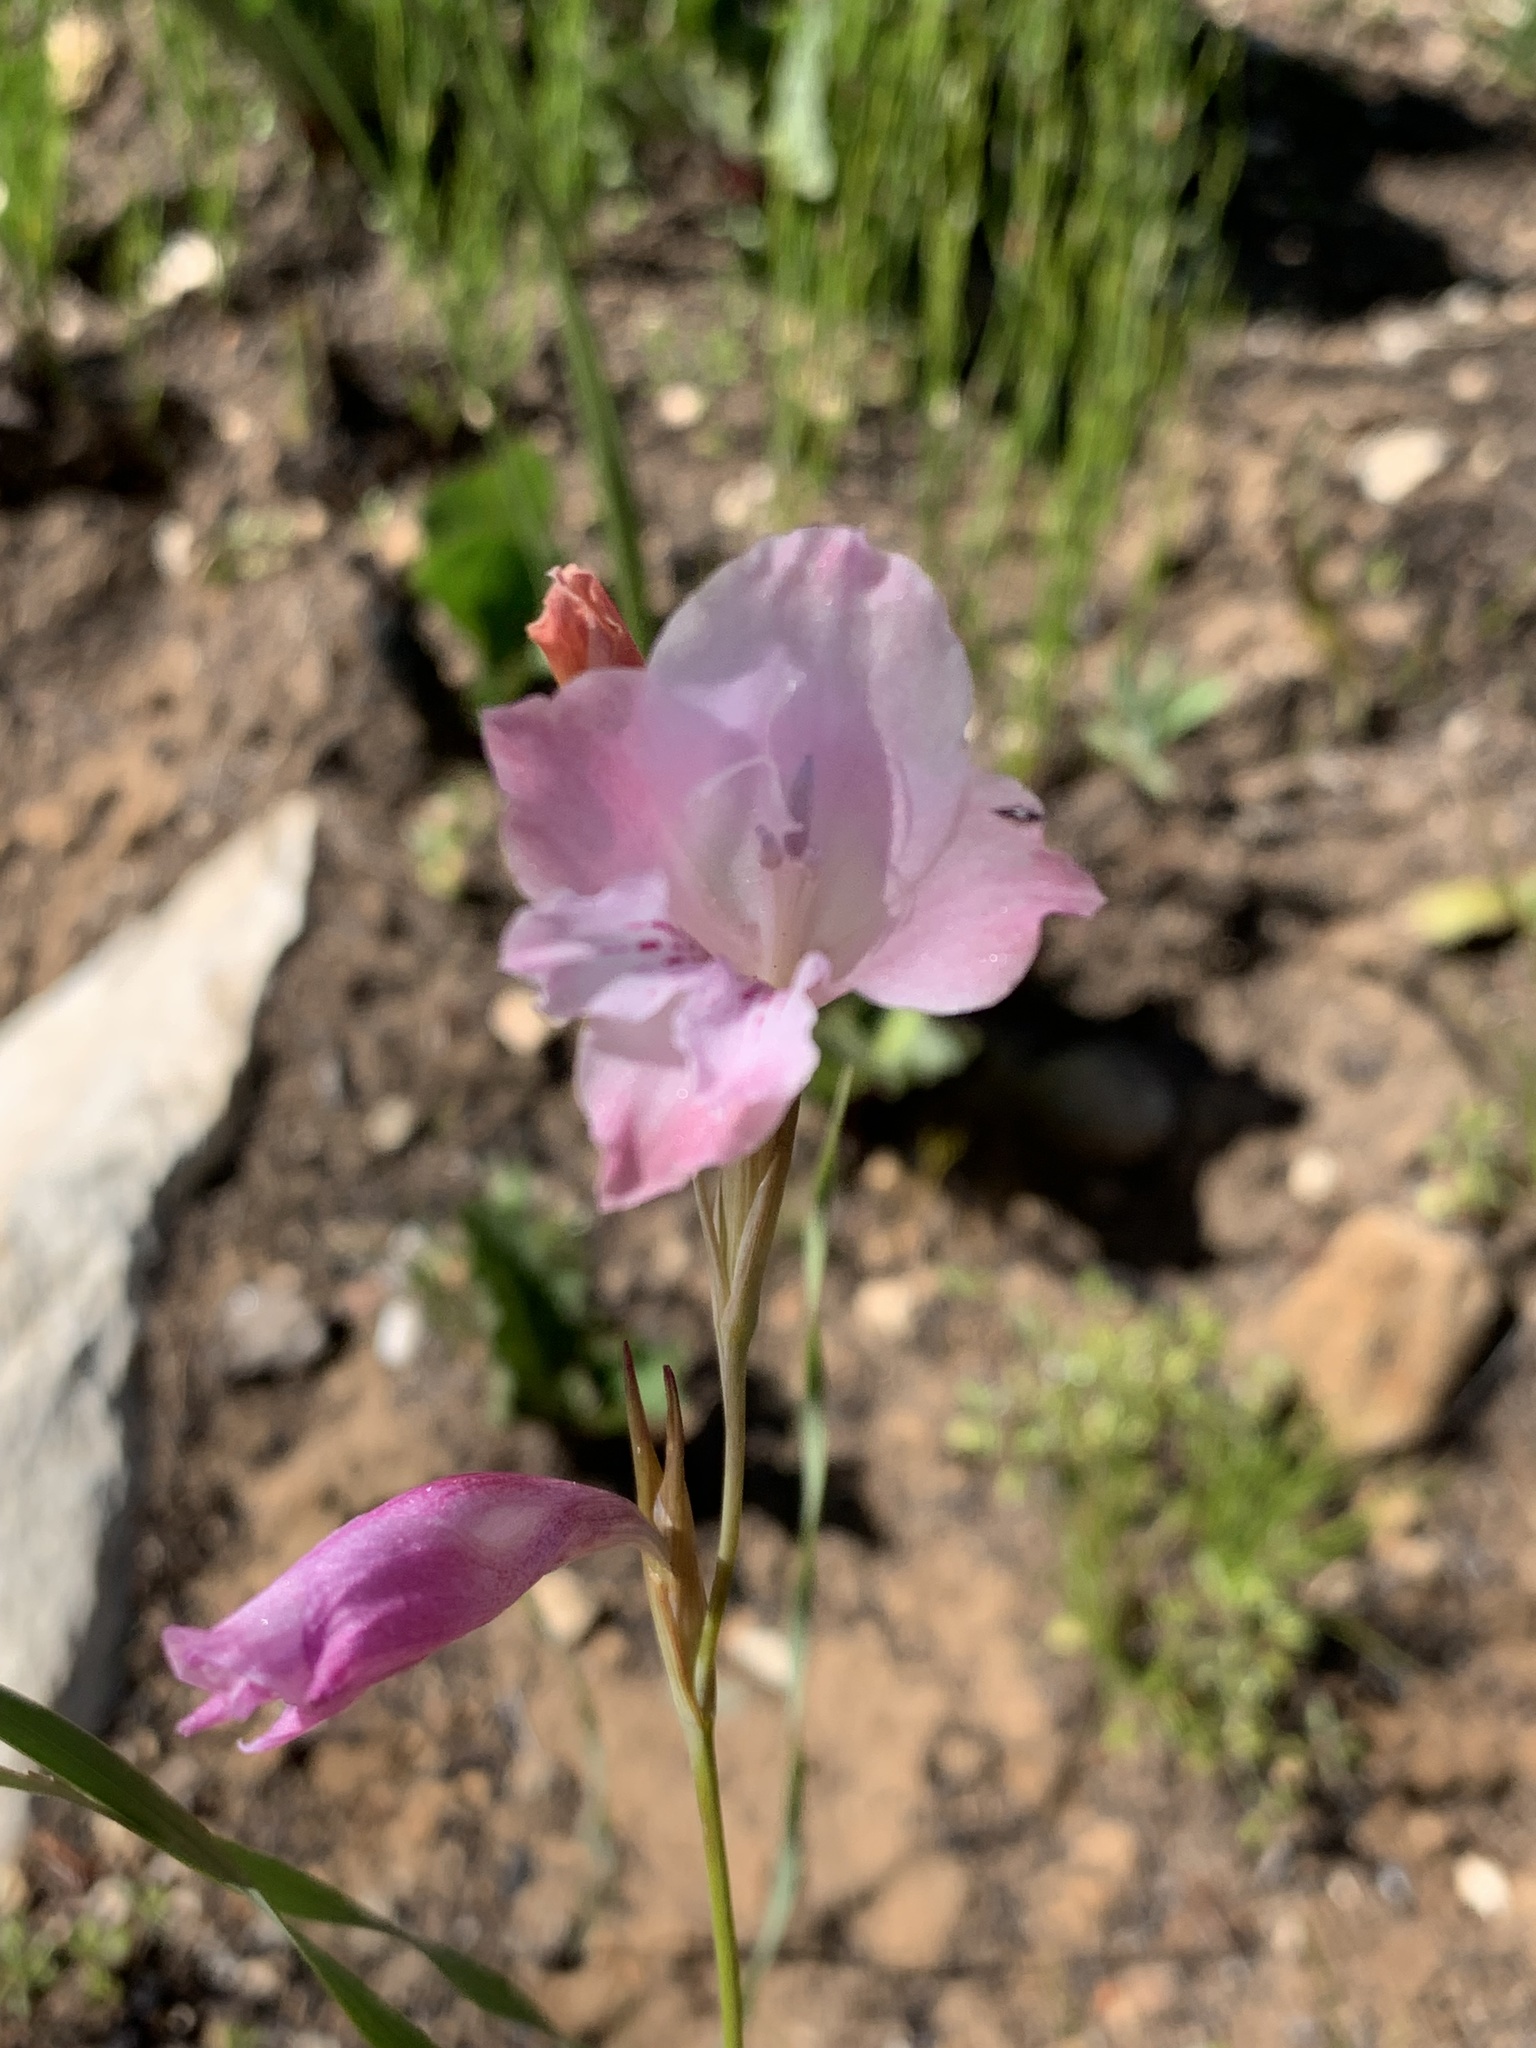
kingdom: Plantae
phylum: Tracheophyta
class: Liliopsida
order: Asparagales
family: Iridaceae
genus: Gladiolus
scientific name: Gladiolus hirsutus
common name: Small pink afrikaner
